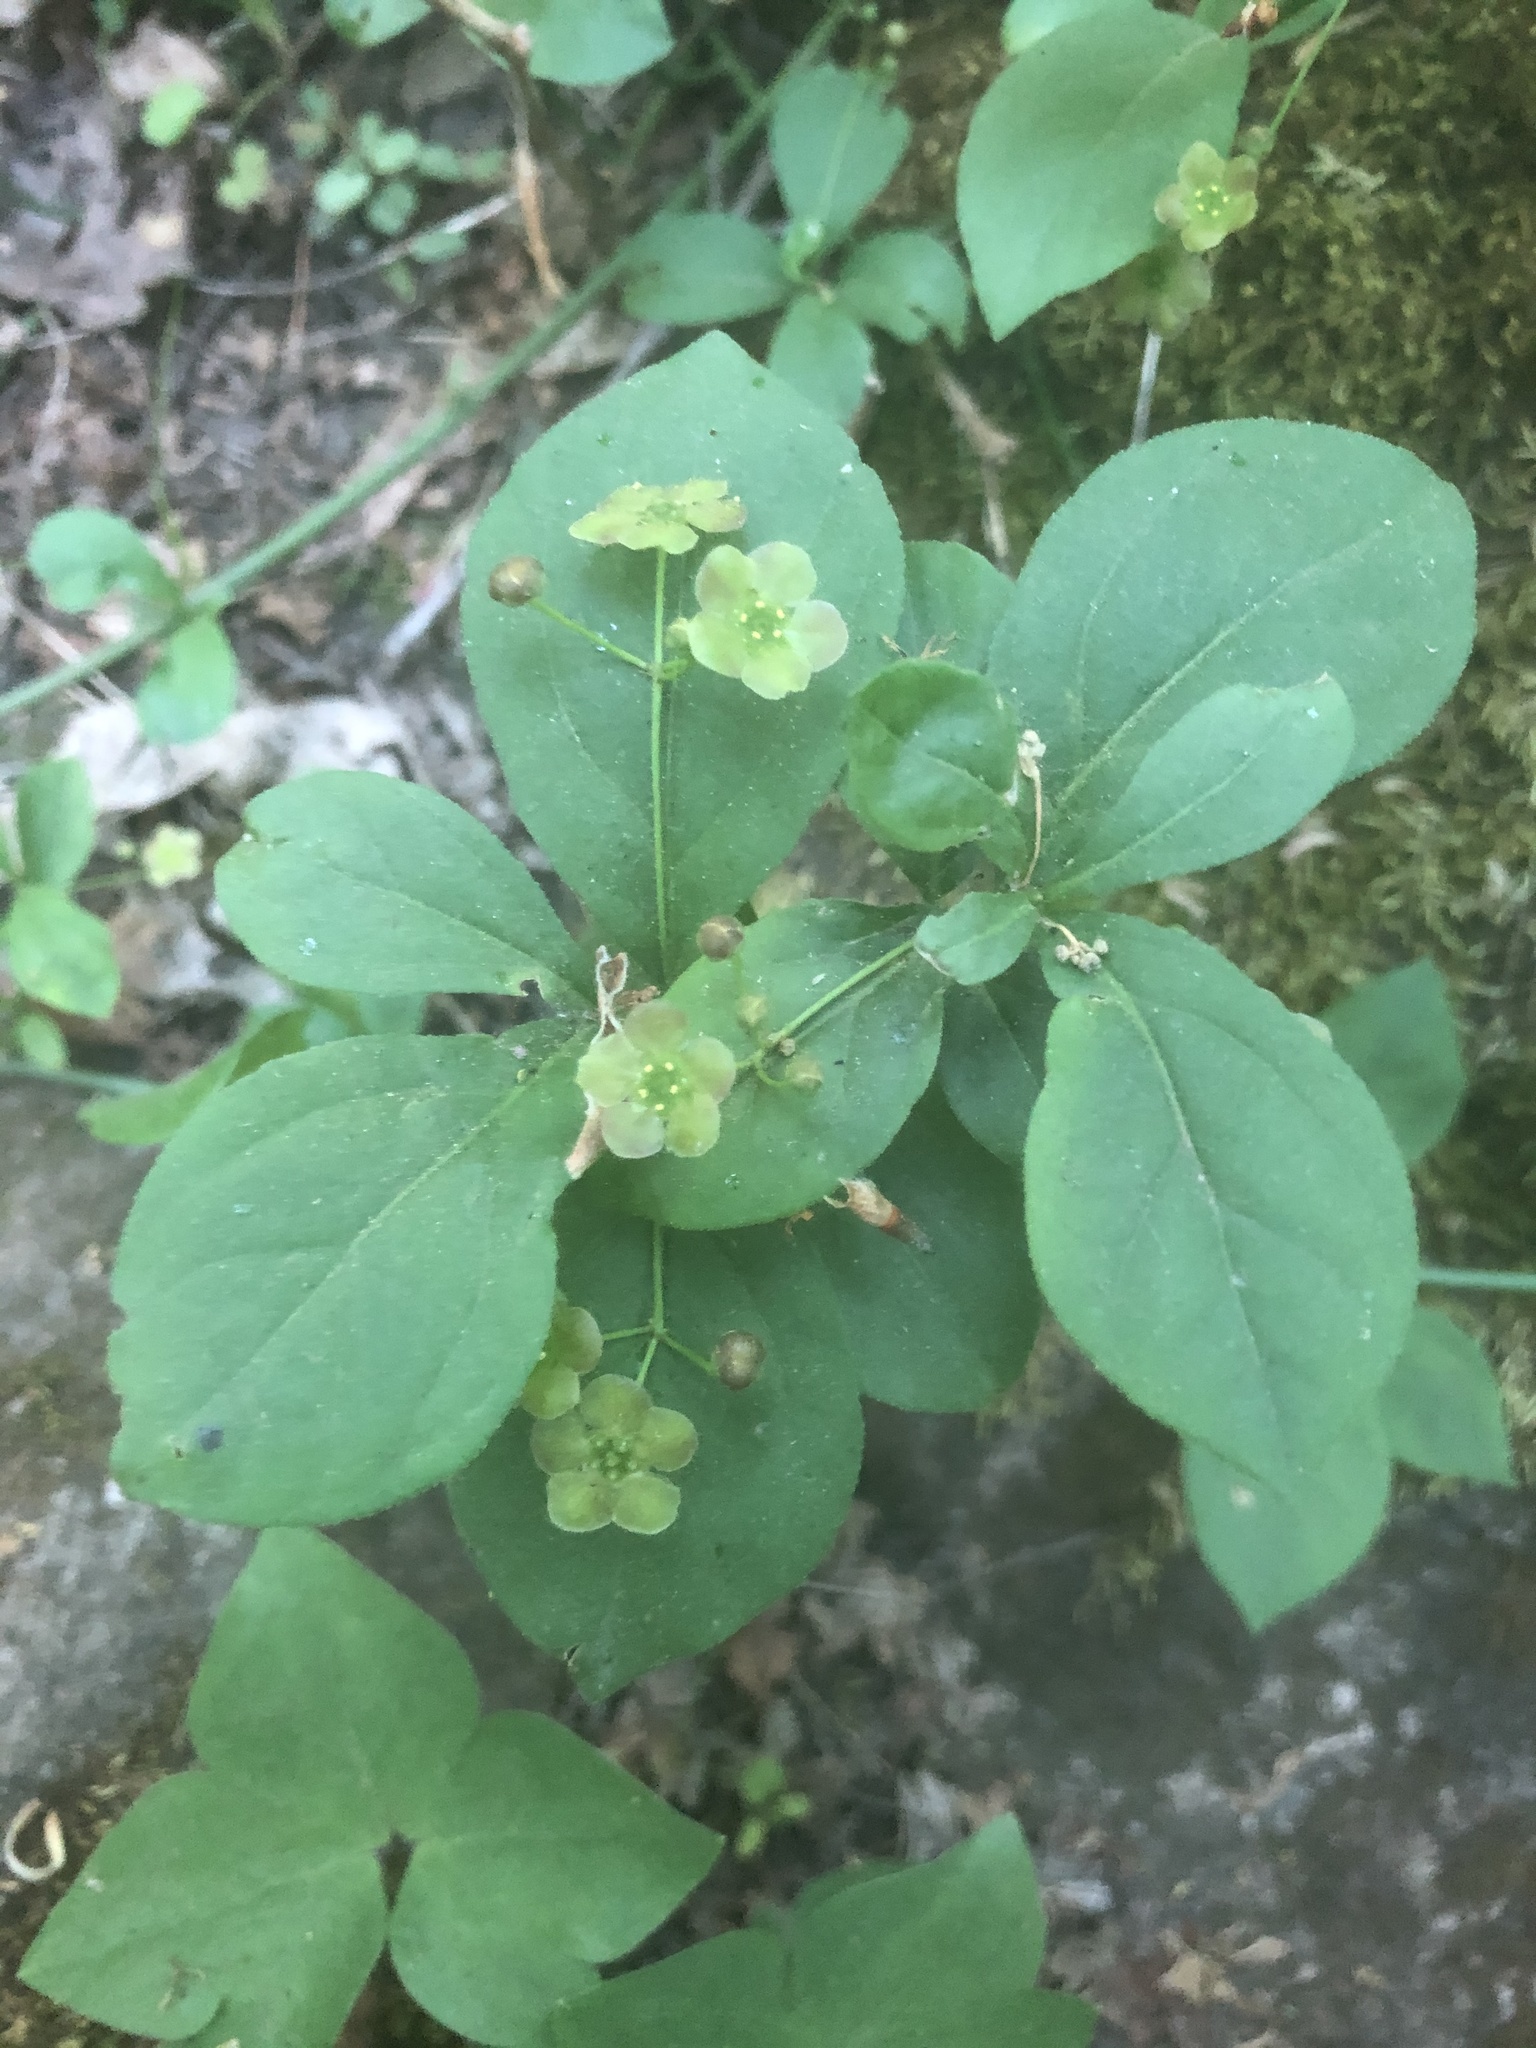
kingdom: Plantae
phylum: Tracheophyta
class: Magnoliopsida
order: Celastrales
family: Celastraceae
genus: Euonymus
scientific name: Euonymus obovatus
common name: Running strawberry-bush
